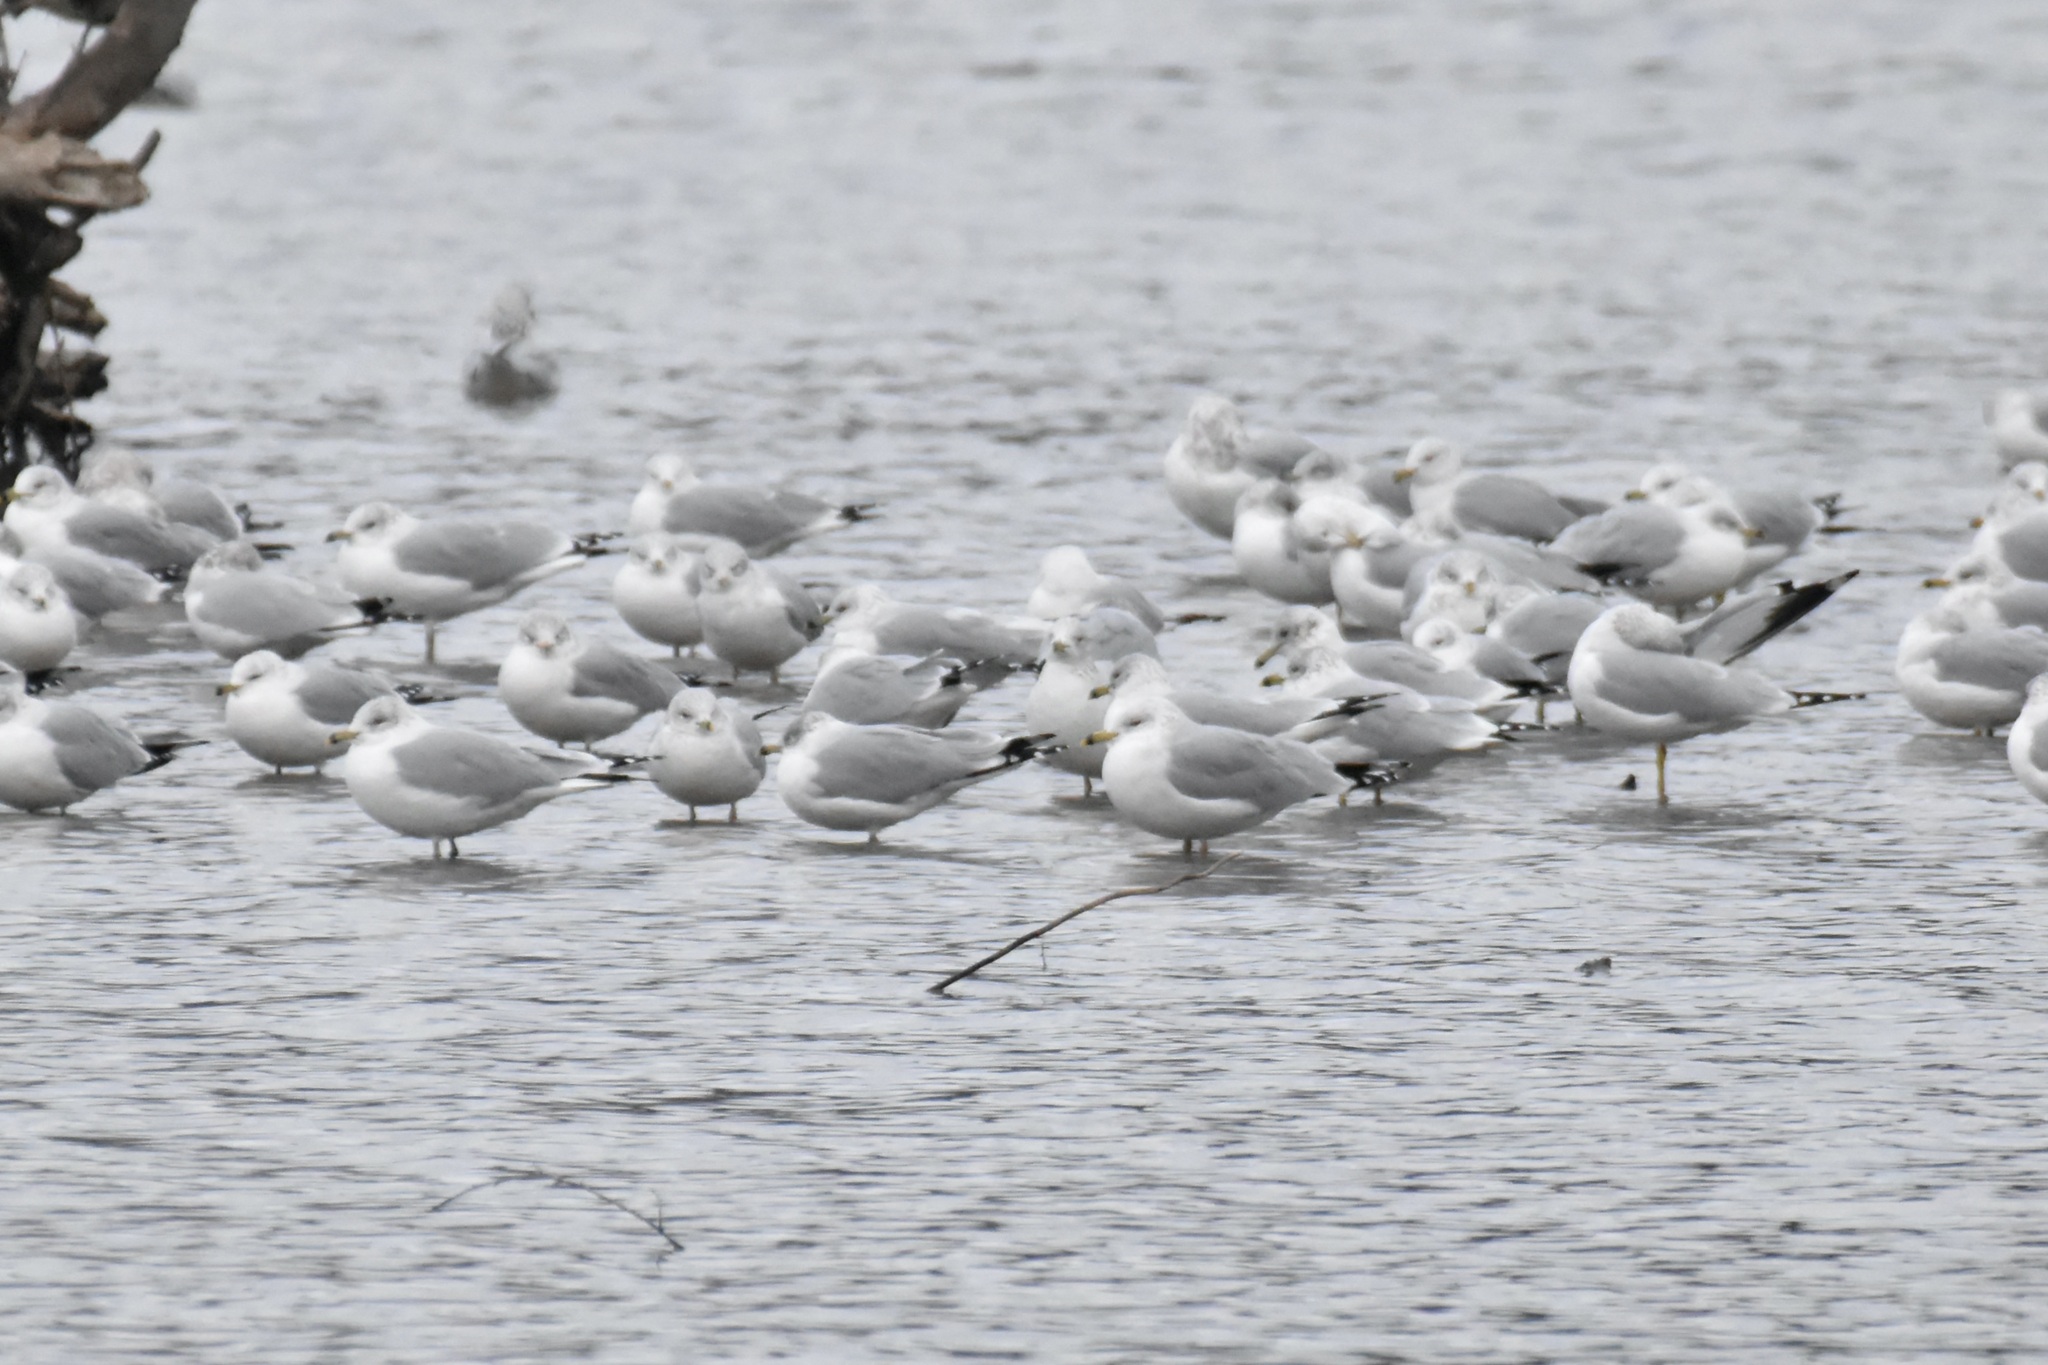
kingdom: Animalia
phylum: Chordata
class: Aves
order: Charadriiformes
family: Laridae
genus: Larus
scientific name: Larus delawarensis
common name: Ring-billed gull
